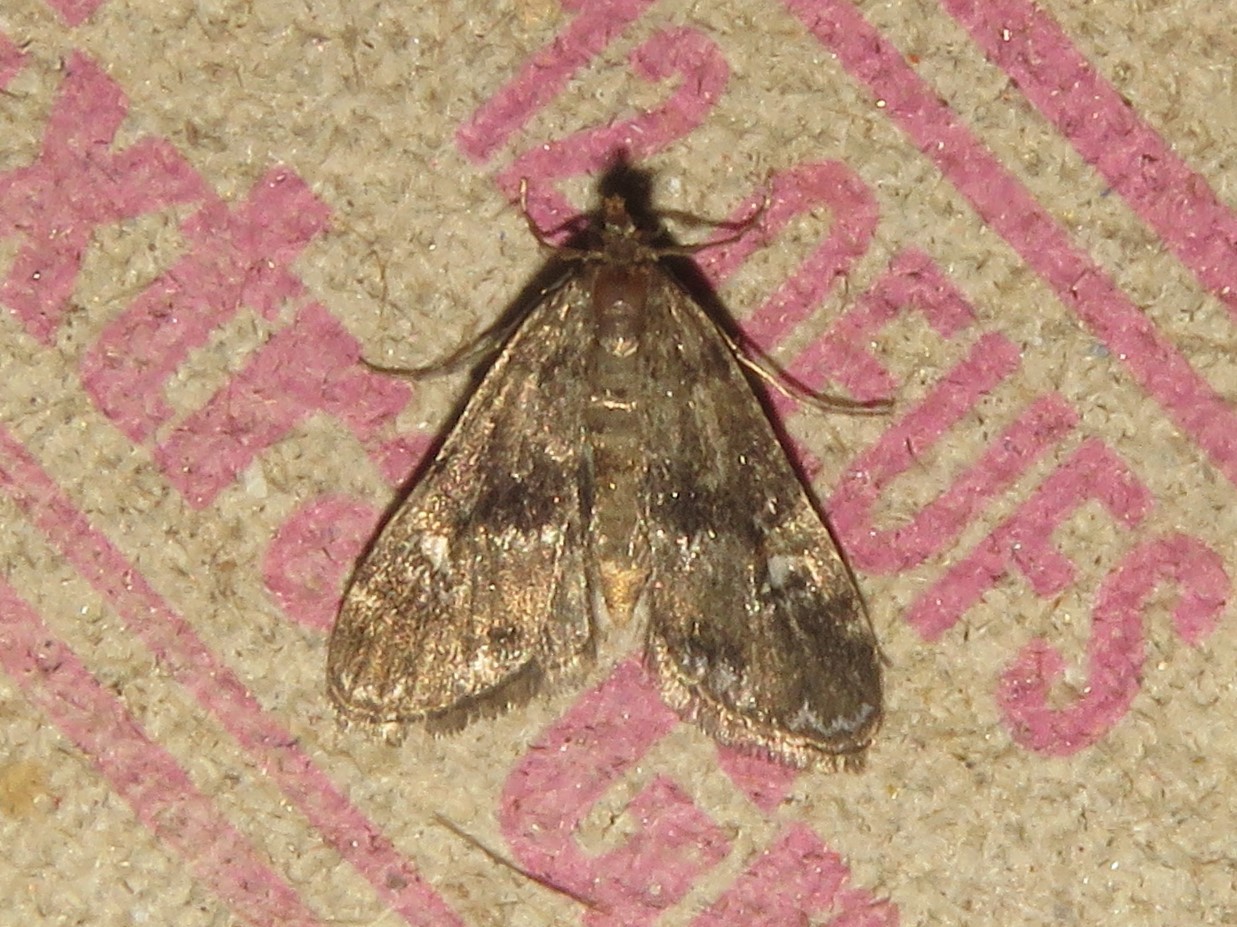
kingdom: Animalia
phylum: Arthropoda
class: Insecta
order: Lepidoptera
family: Crambidae
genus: Elophila
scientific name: Elophila obliteralis
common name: Waterlily leafcutter moth
